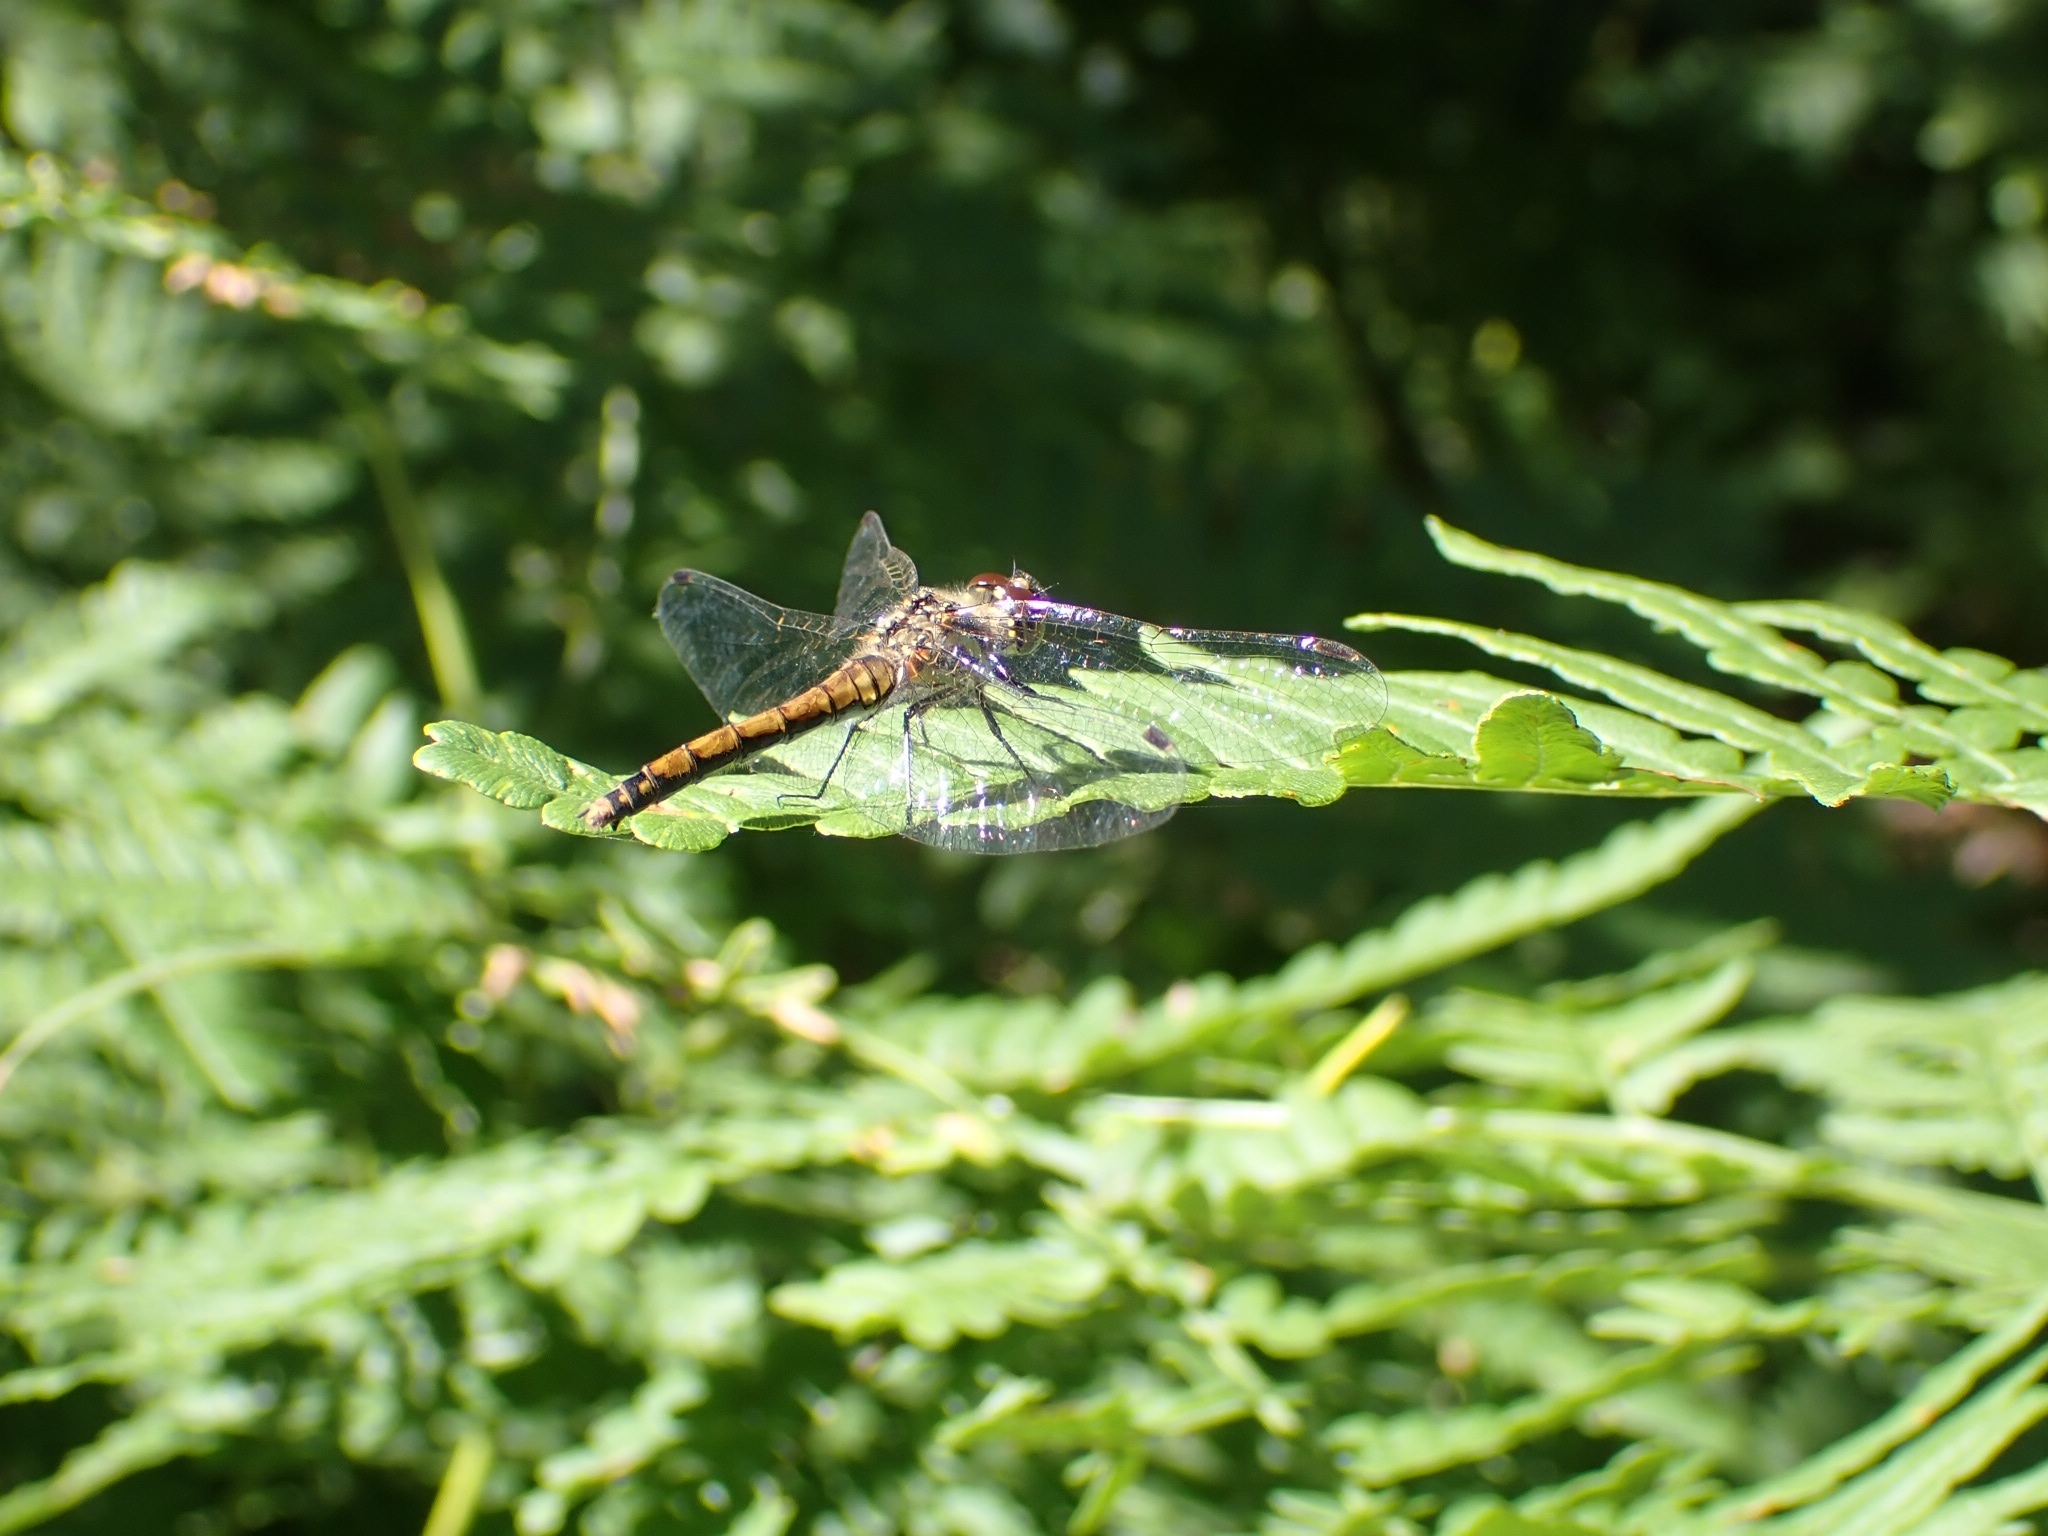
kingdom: Animalia
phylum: Arthropoda
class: Insecta
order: Odonata
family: Libellulidae
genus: Sympetrum
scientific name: Sympetrum danae
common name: Black darter
